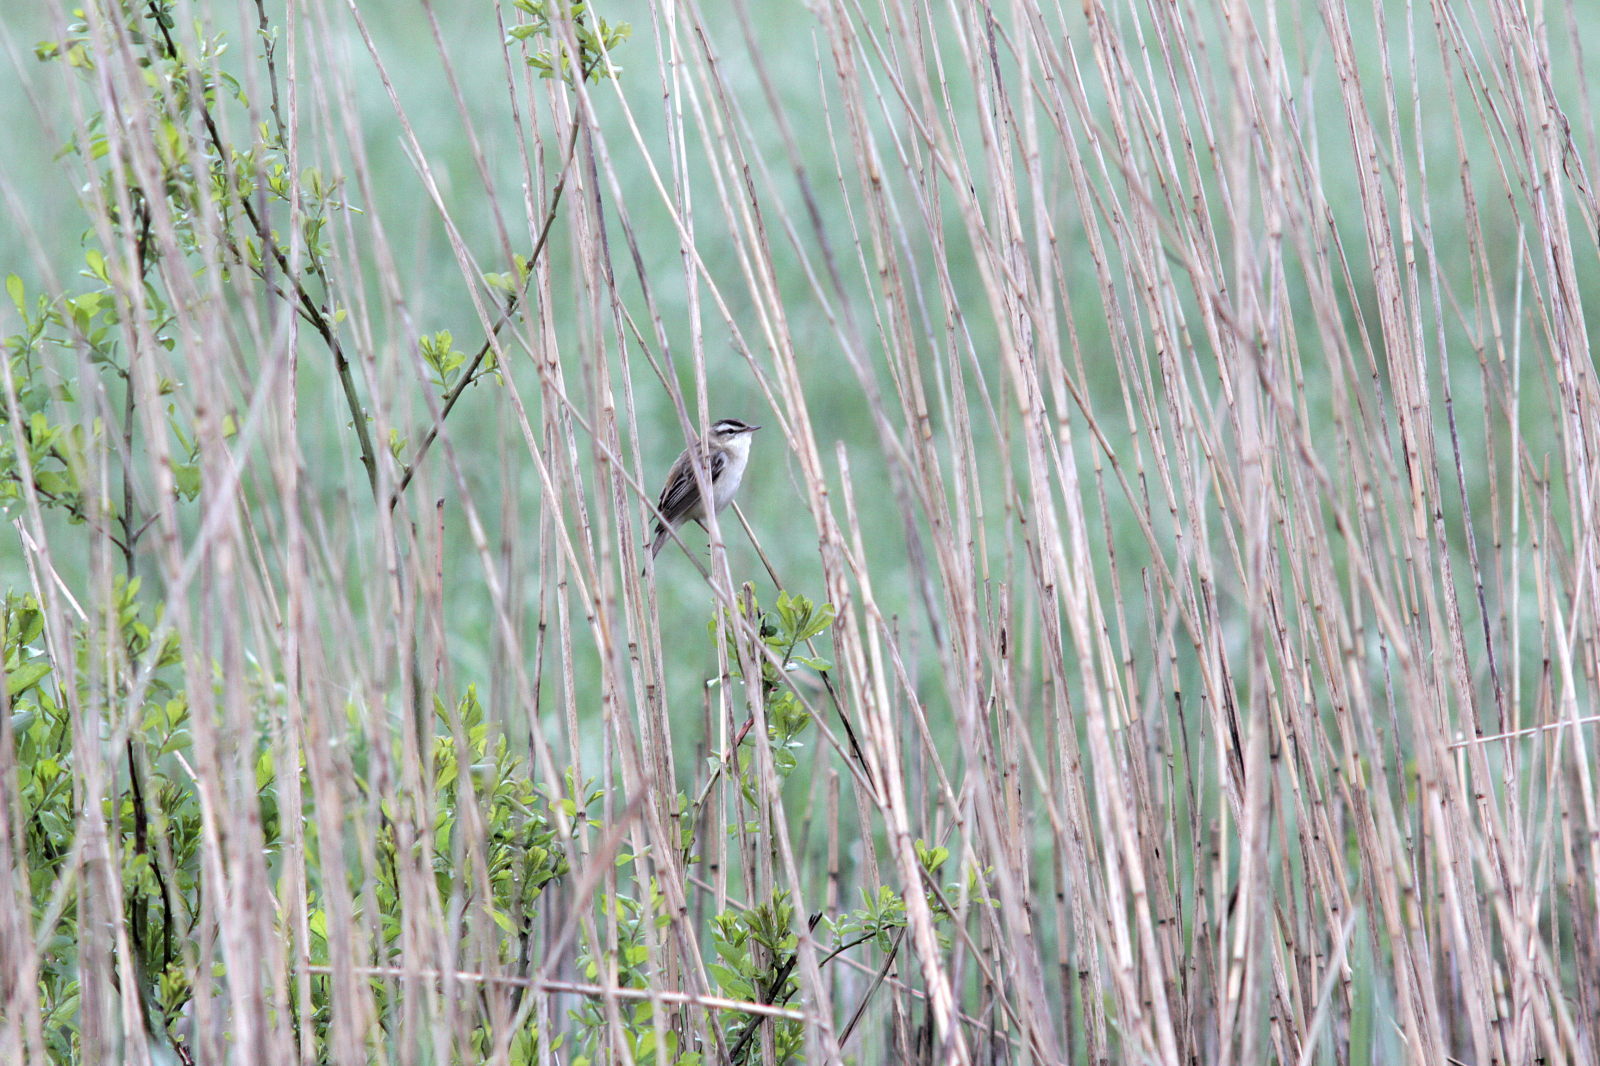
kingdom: Animalia
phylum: Chordata
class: Aves
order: Passeriformes
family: Acrocephalidae
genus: Acrocephalus
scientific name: Acrocephalus schoenobaenus
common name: Sedge warbler
